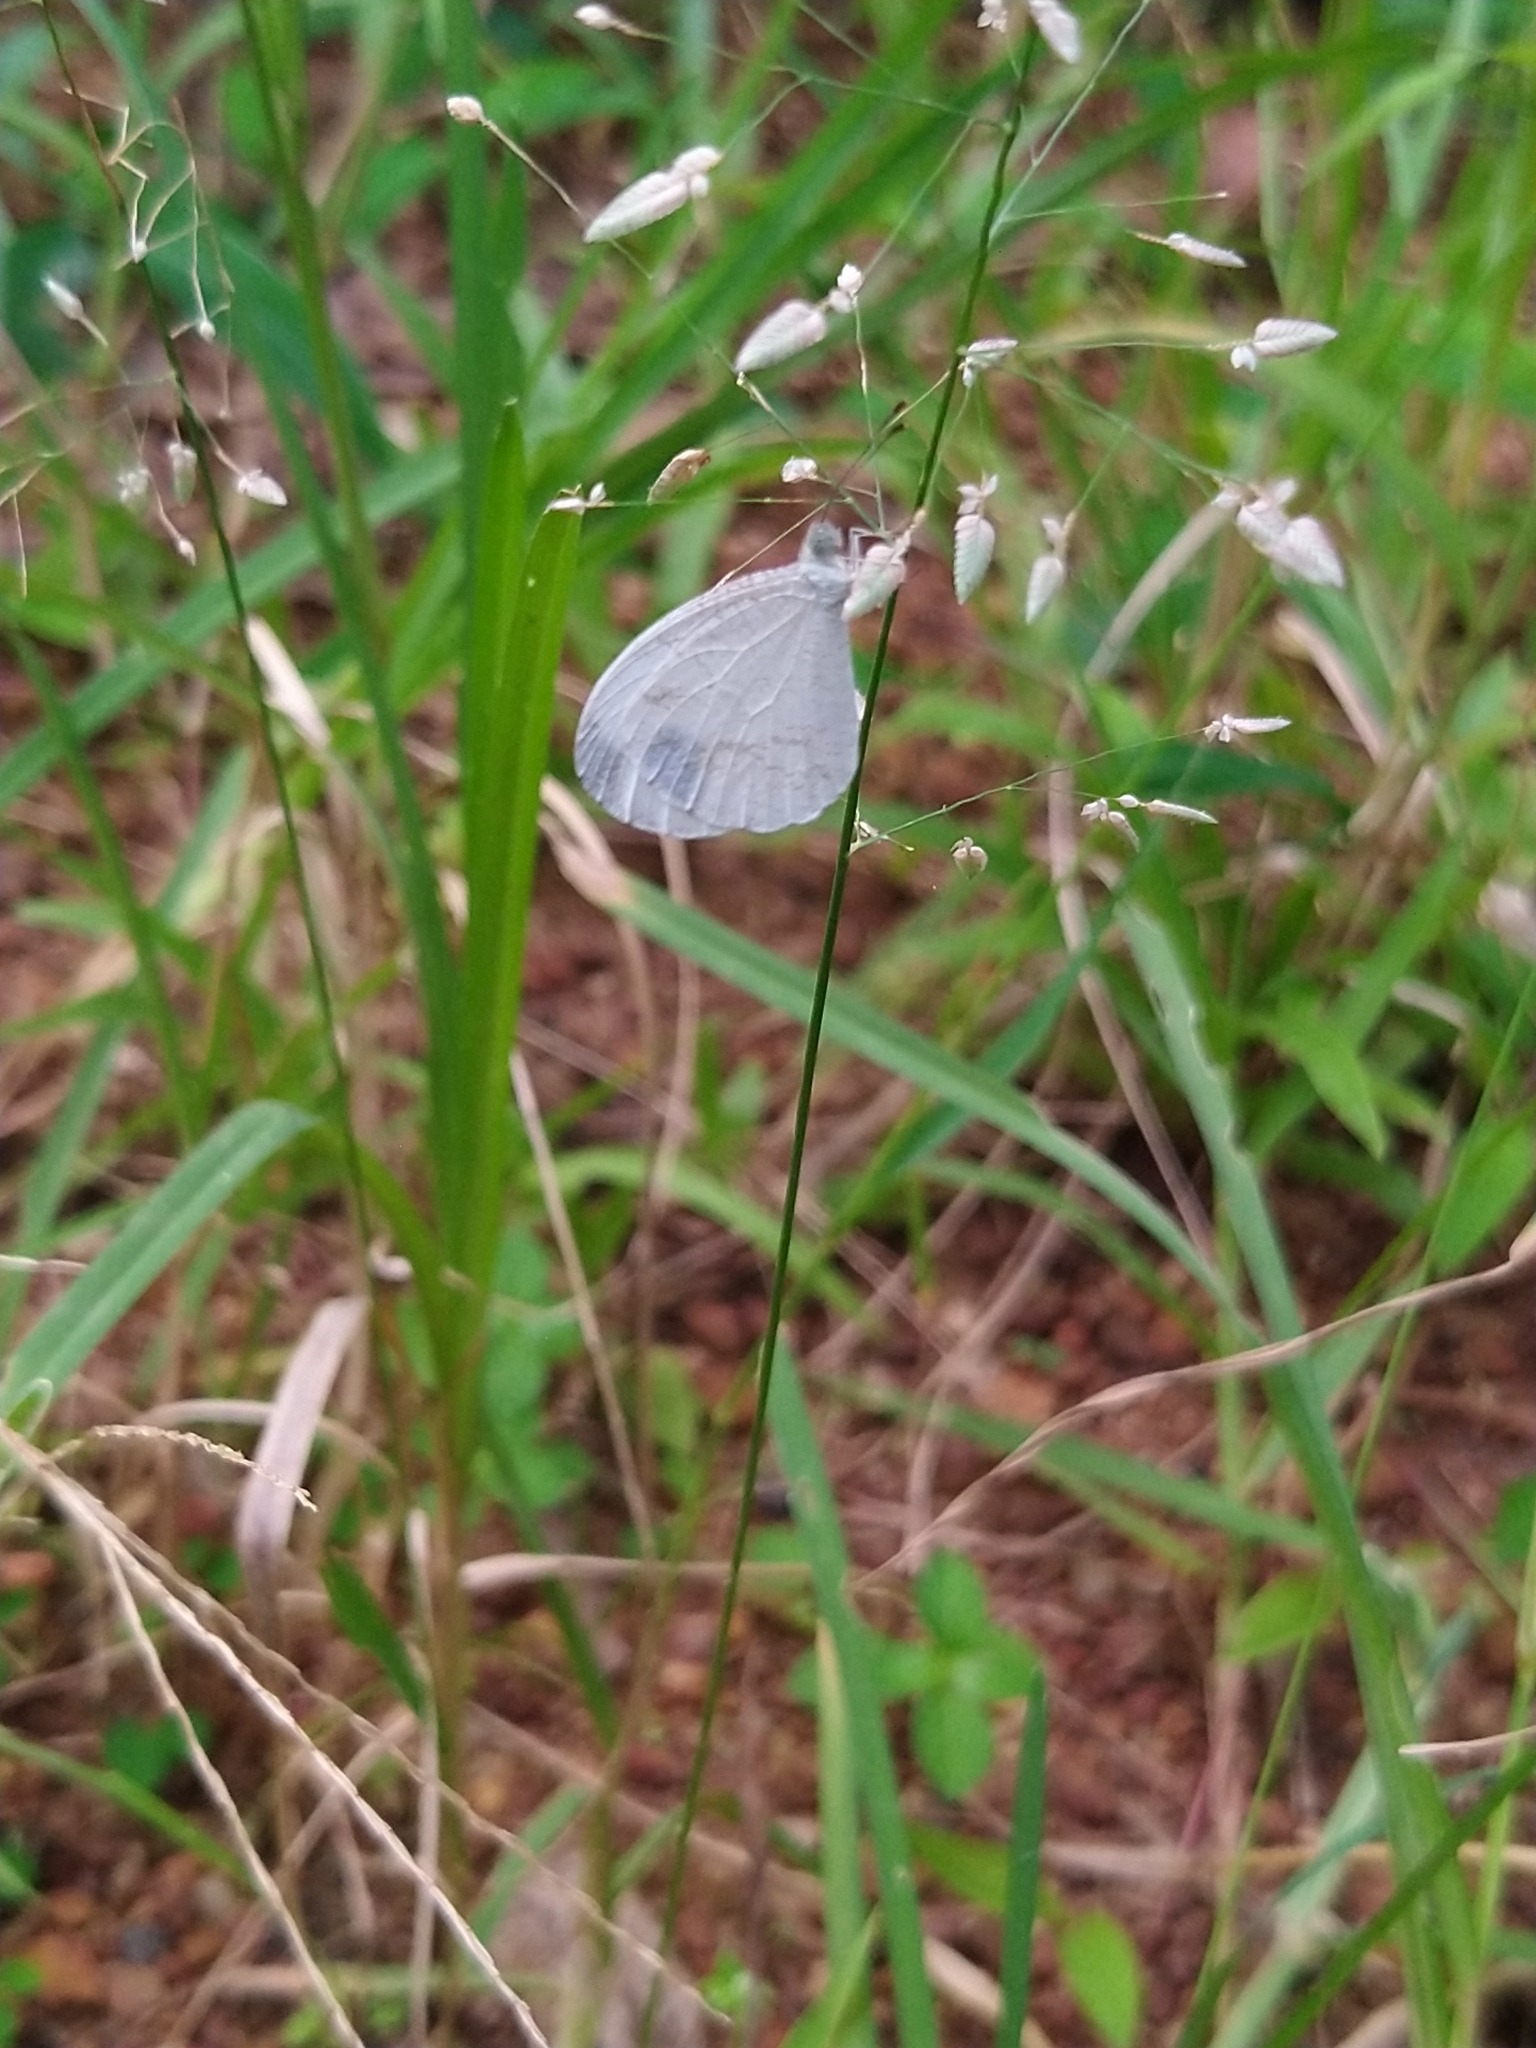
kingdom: Animalia
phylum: Arthropoda
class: Insecta
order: Lepidoptera
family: Pieridae
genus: Leptosia
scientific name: Leptosia nina
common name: Psyche
